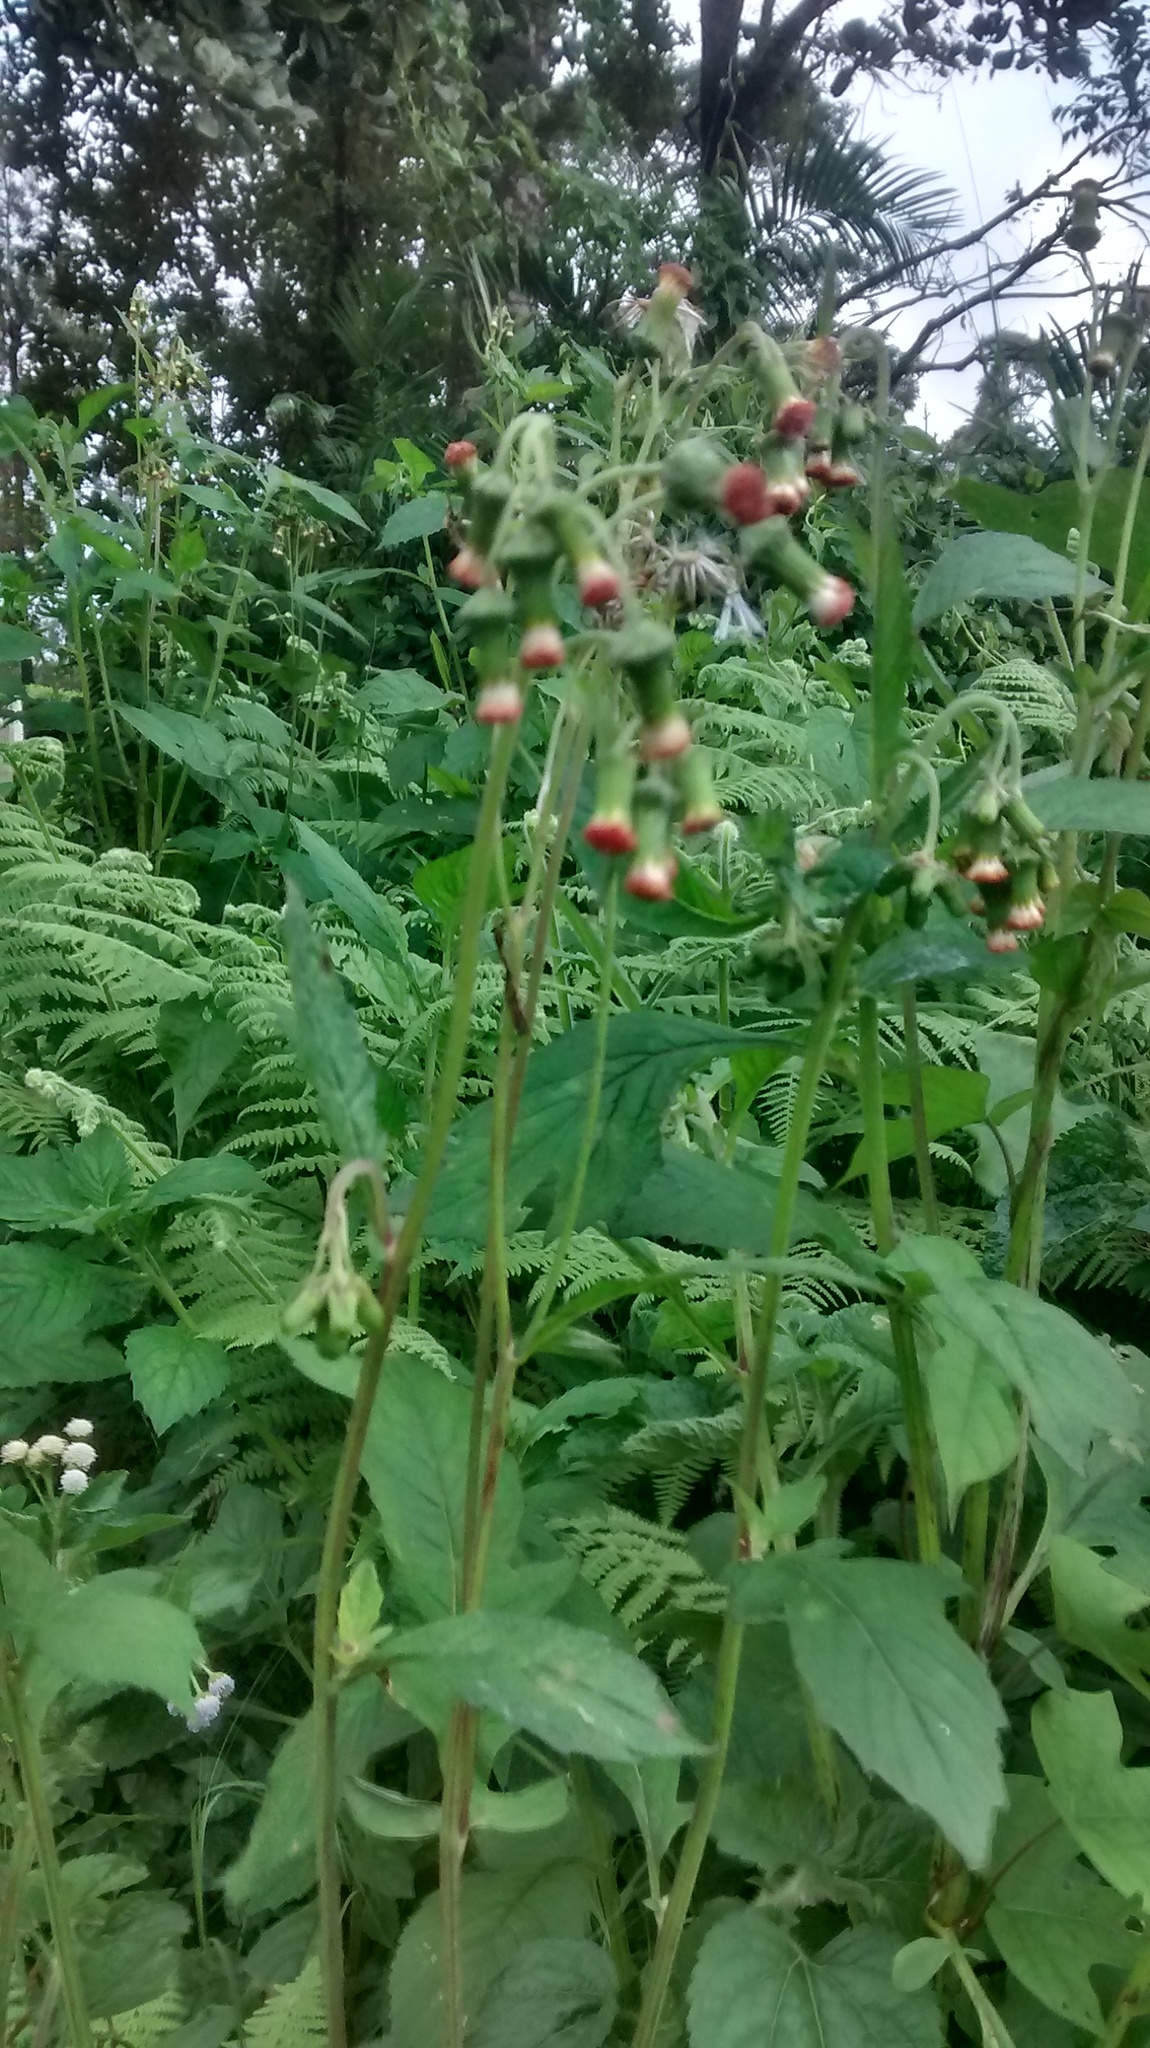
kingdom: Plantae
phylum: Tracheophyta
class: Magnoliopsida
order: Asterales
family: Asteraceae
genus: Crassocephalum
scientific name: Crassocephalum crepidioides
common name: Redflower ragleaf
